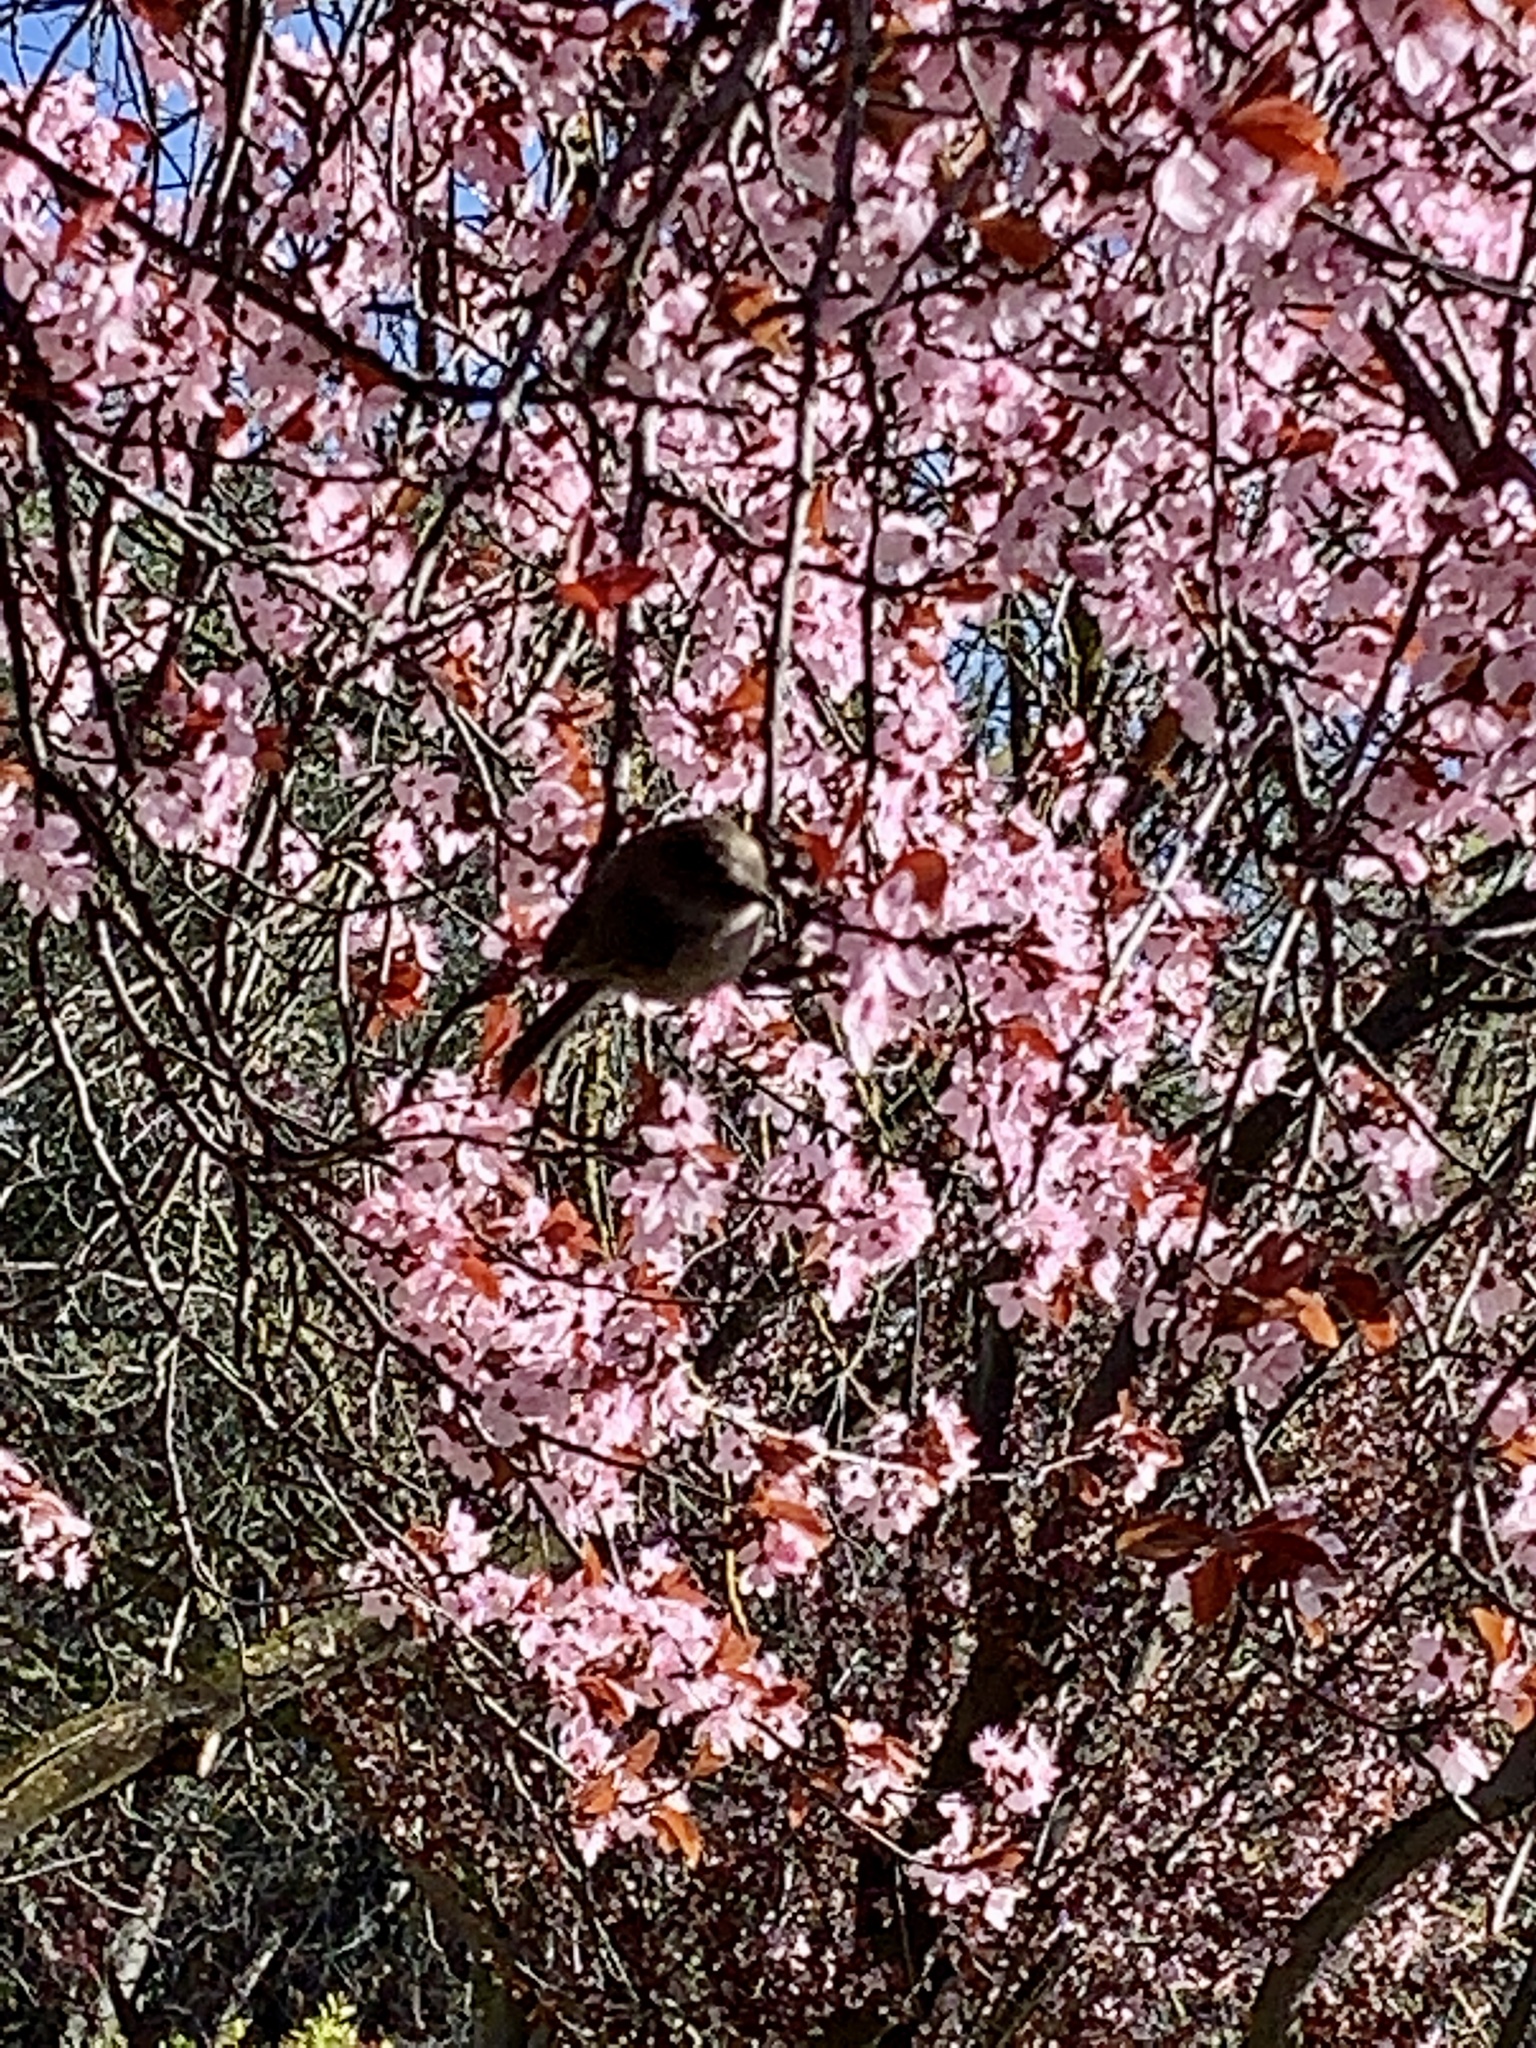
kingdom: Animalia
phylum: Chordata
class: Aves
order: Passeriformes
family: Aegithalidae
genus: Psaltriparus
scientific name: Psaltriparus minimus
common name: American bushtit
